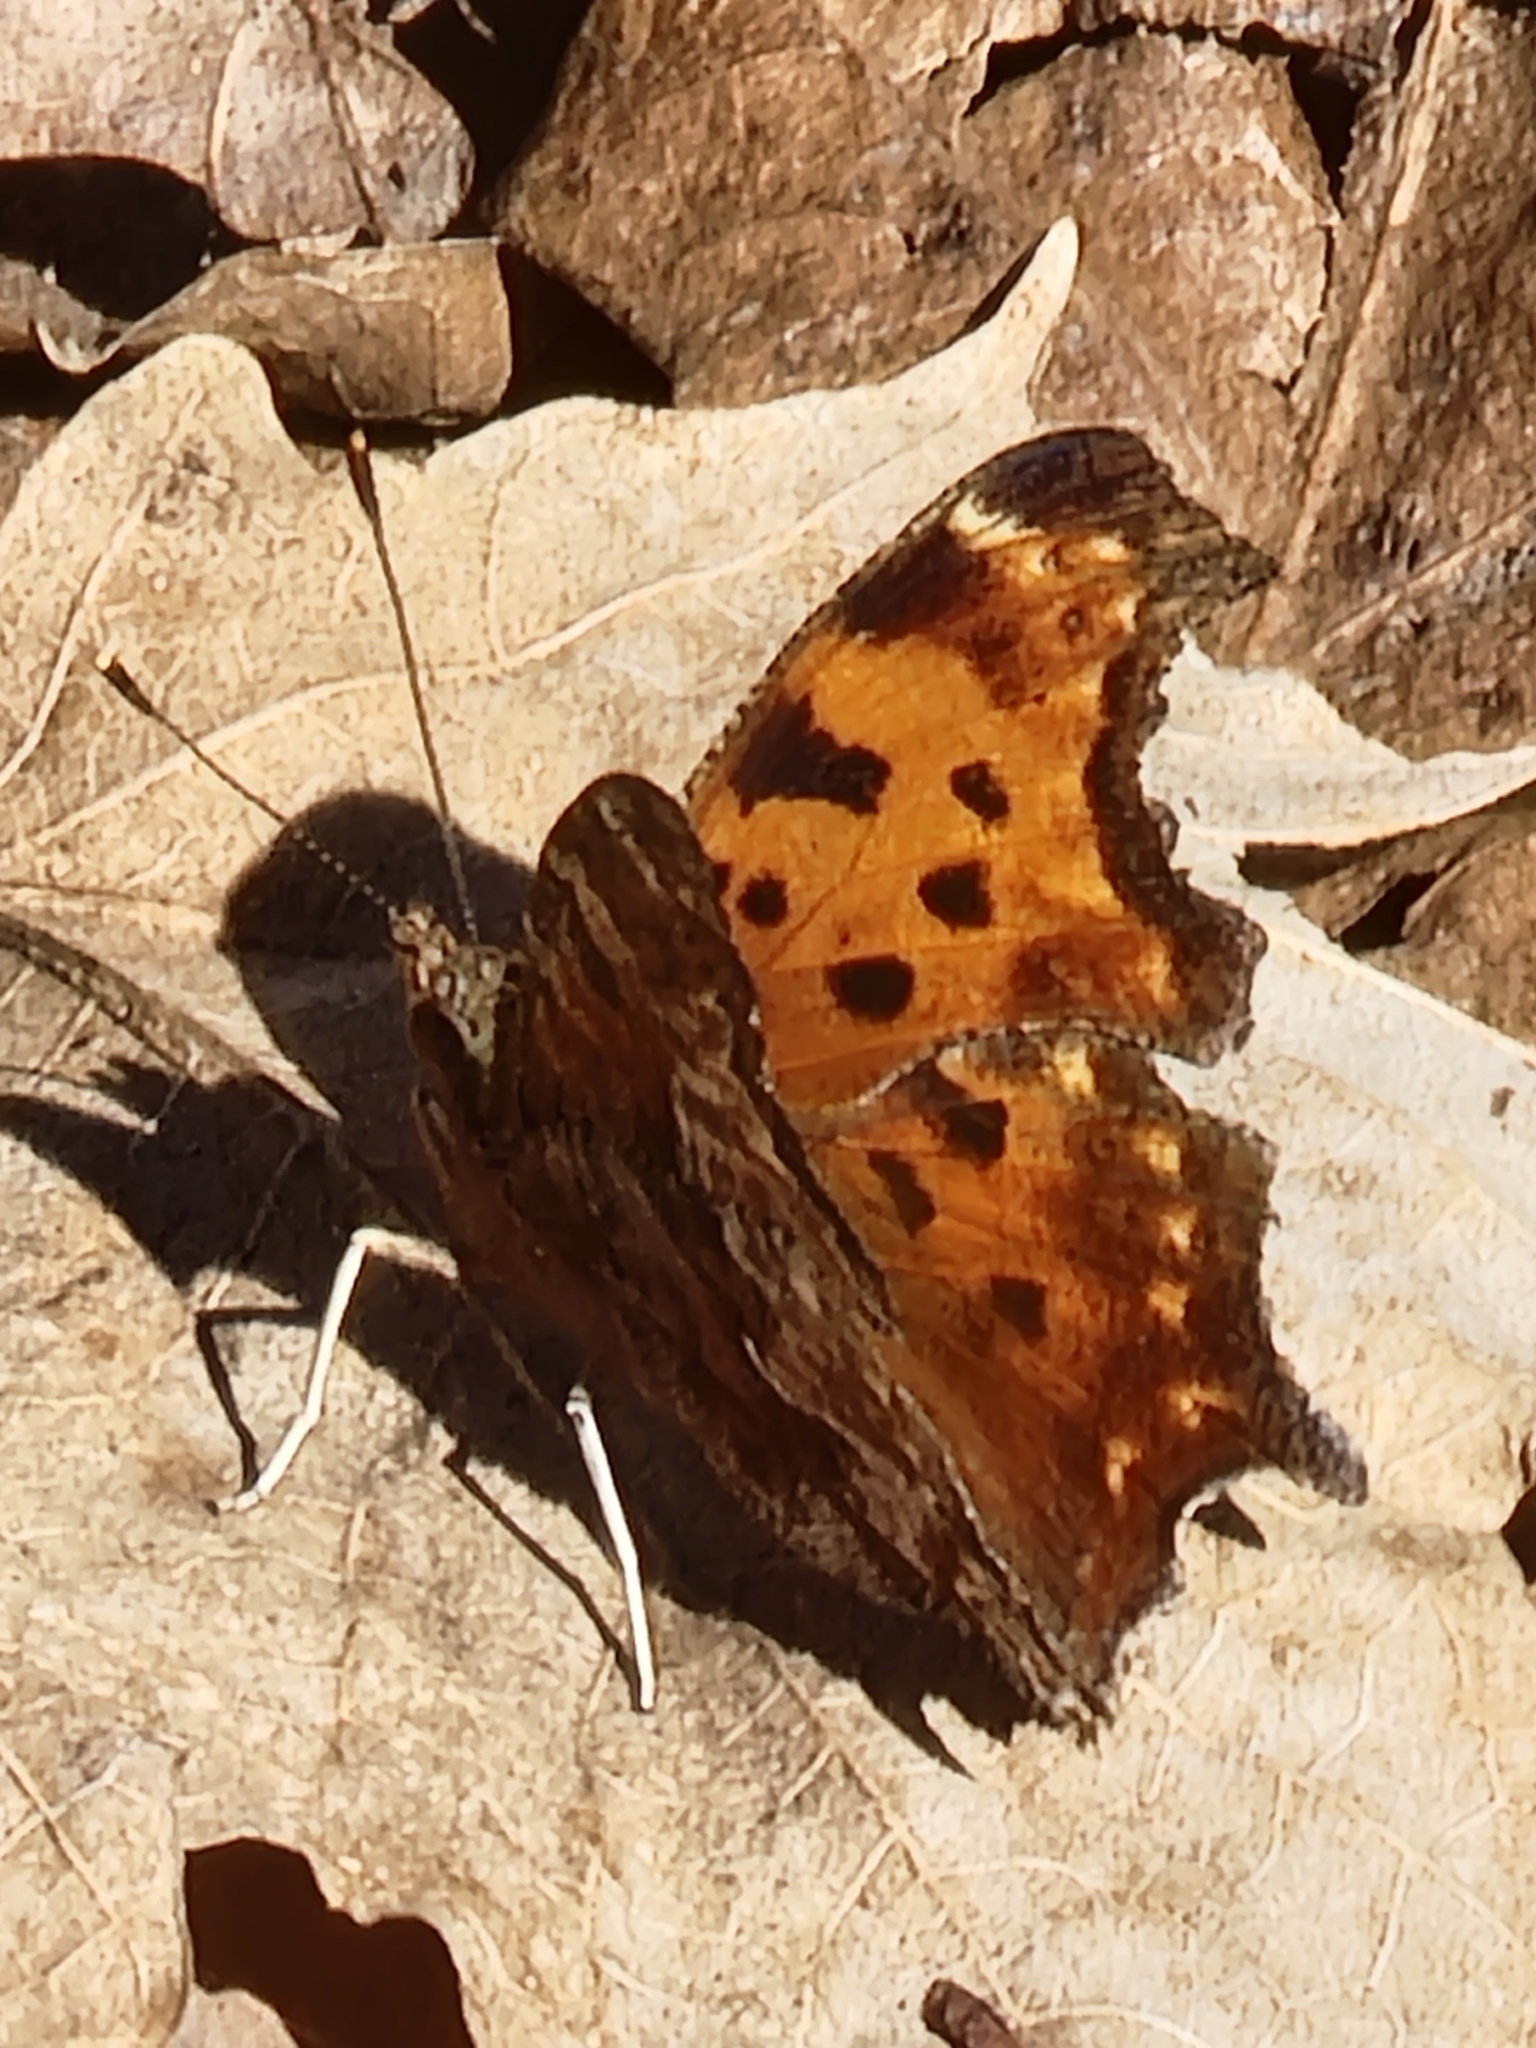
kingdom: Animalia
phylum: Arthropoda
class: Insecta
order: Lepidoptera
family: Nymphalidae
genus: Polygonia
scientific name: Polygonia comma
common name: Eastern comma
